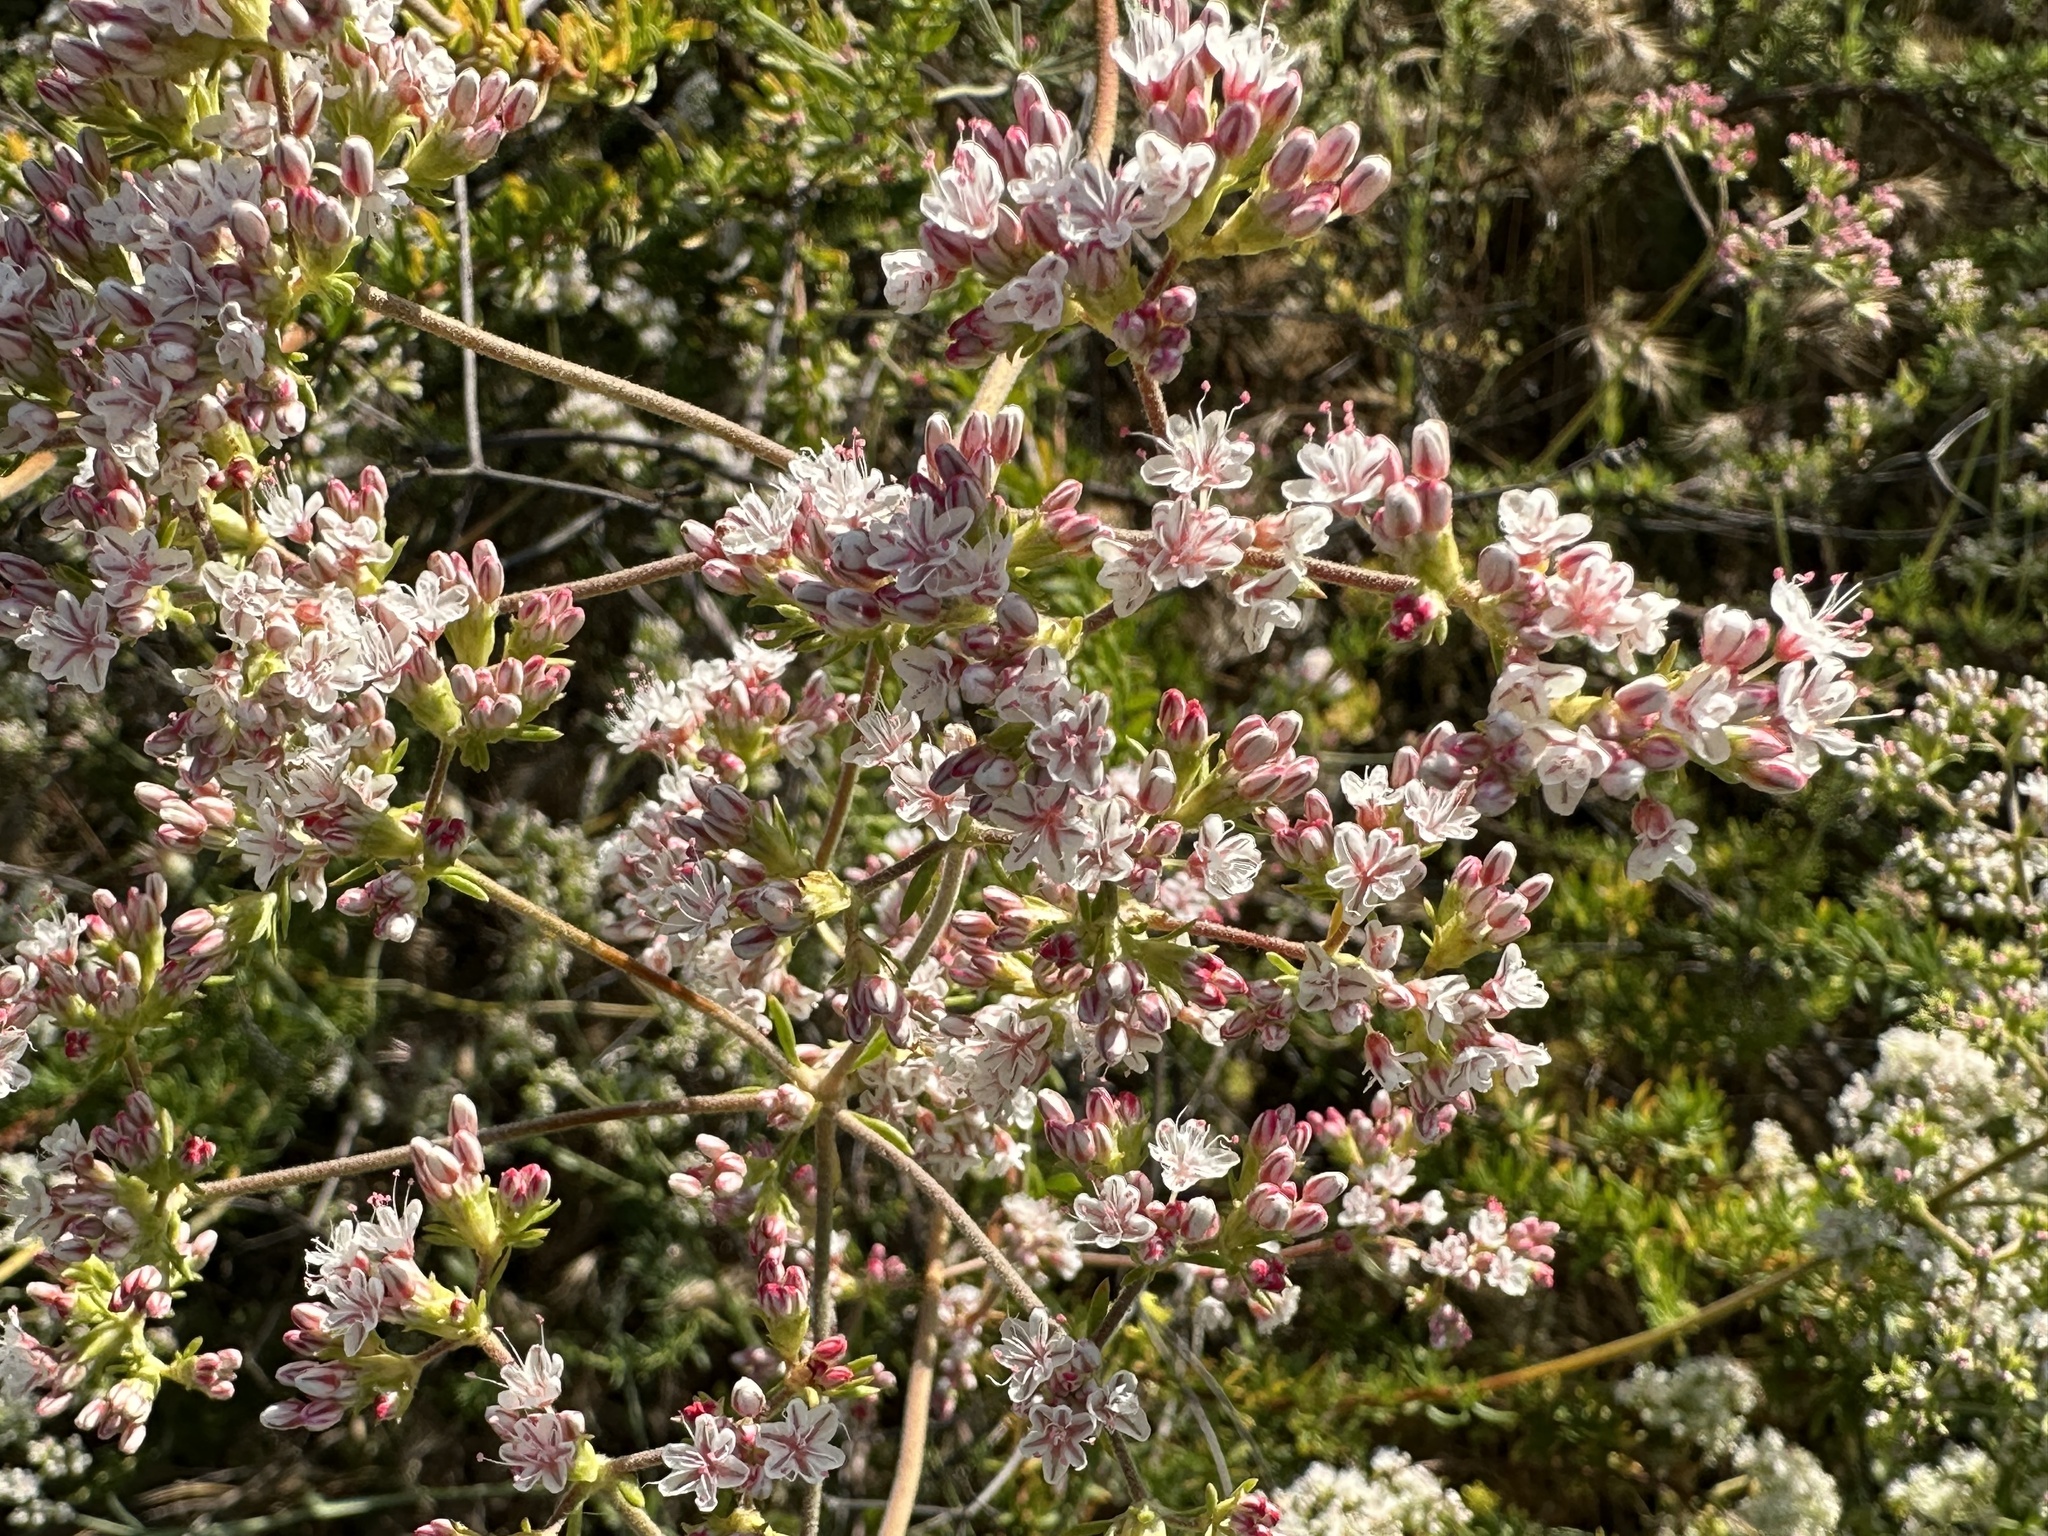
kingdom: Plantae
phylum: Tracheophyta
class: Magnoliopsida
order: Caryophyllales
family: Polygonaceae
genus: Eriogonum
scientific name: Eriogonum fasciculatum
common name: California wild buckwheat
